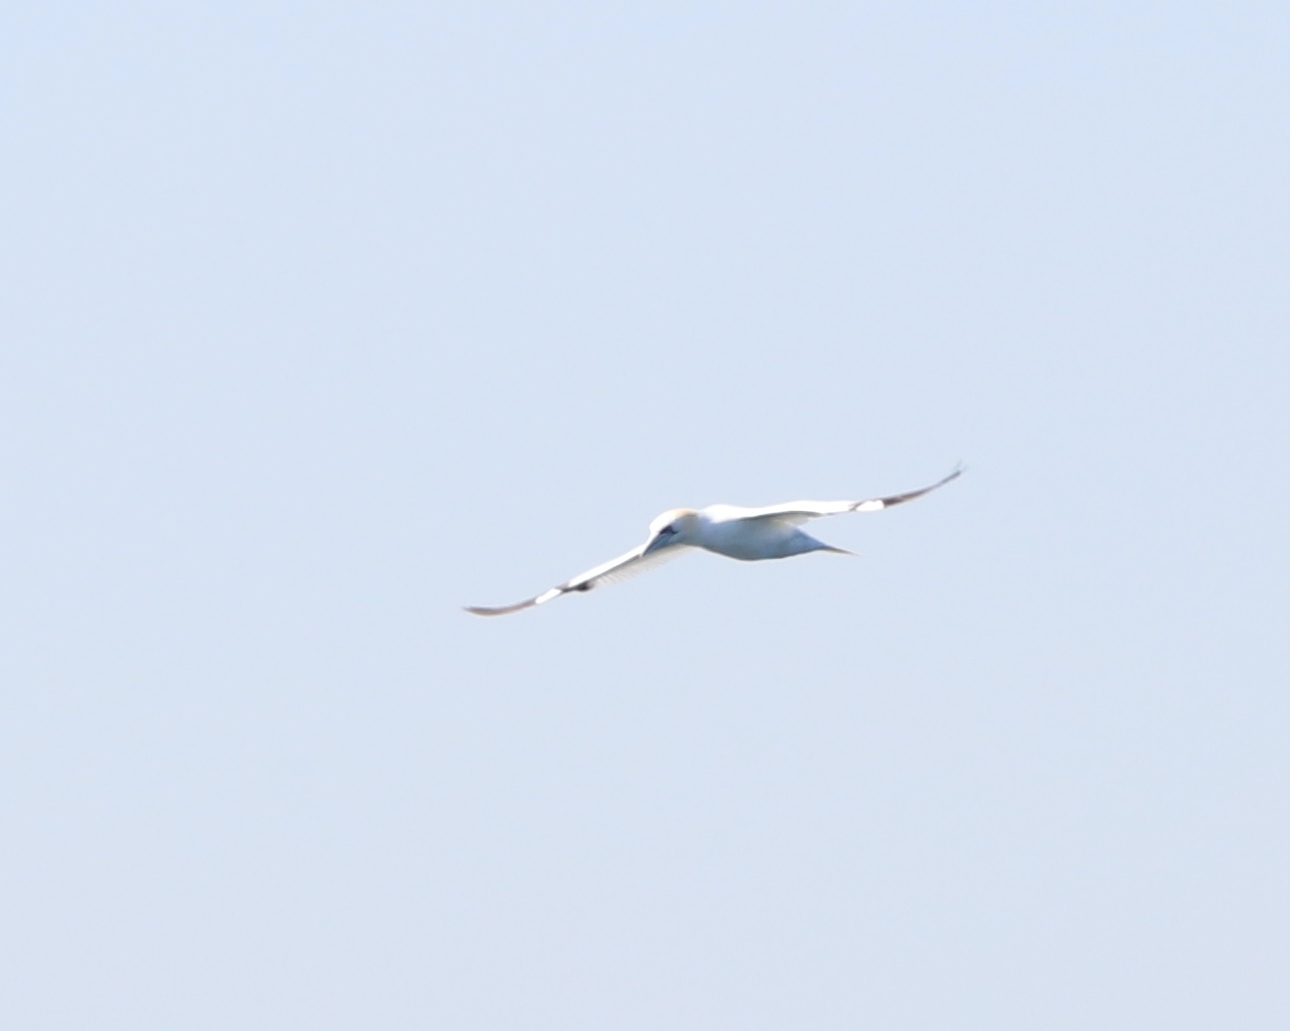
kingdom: Animalia
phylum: Chordata
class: Aves
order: Suliformes
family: Sulidae
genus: Morus
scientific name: Morus bassanus
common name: Northern gannet
